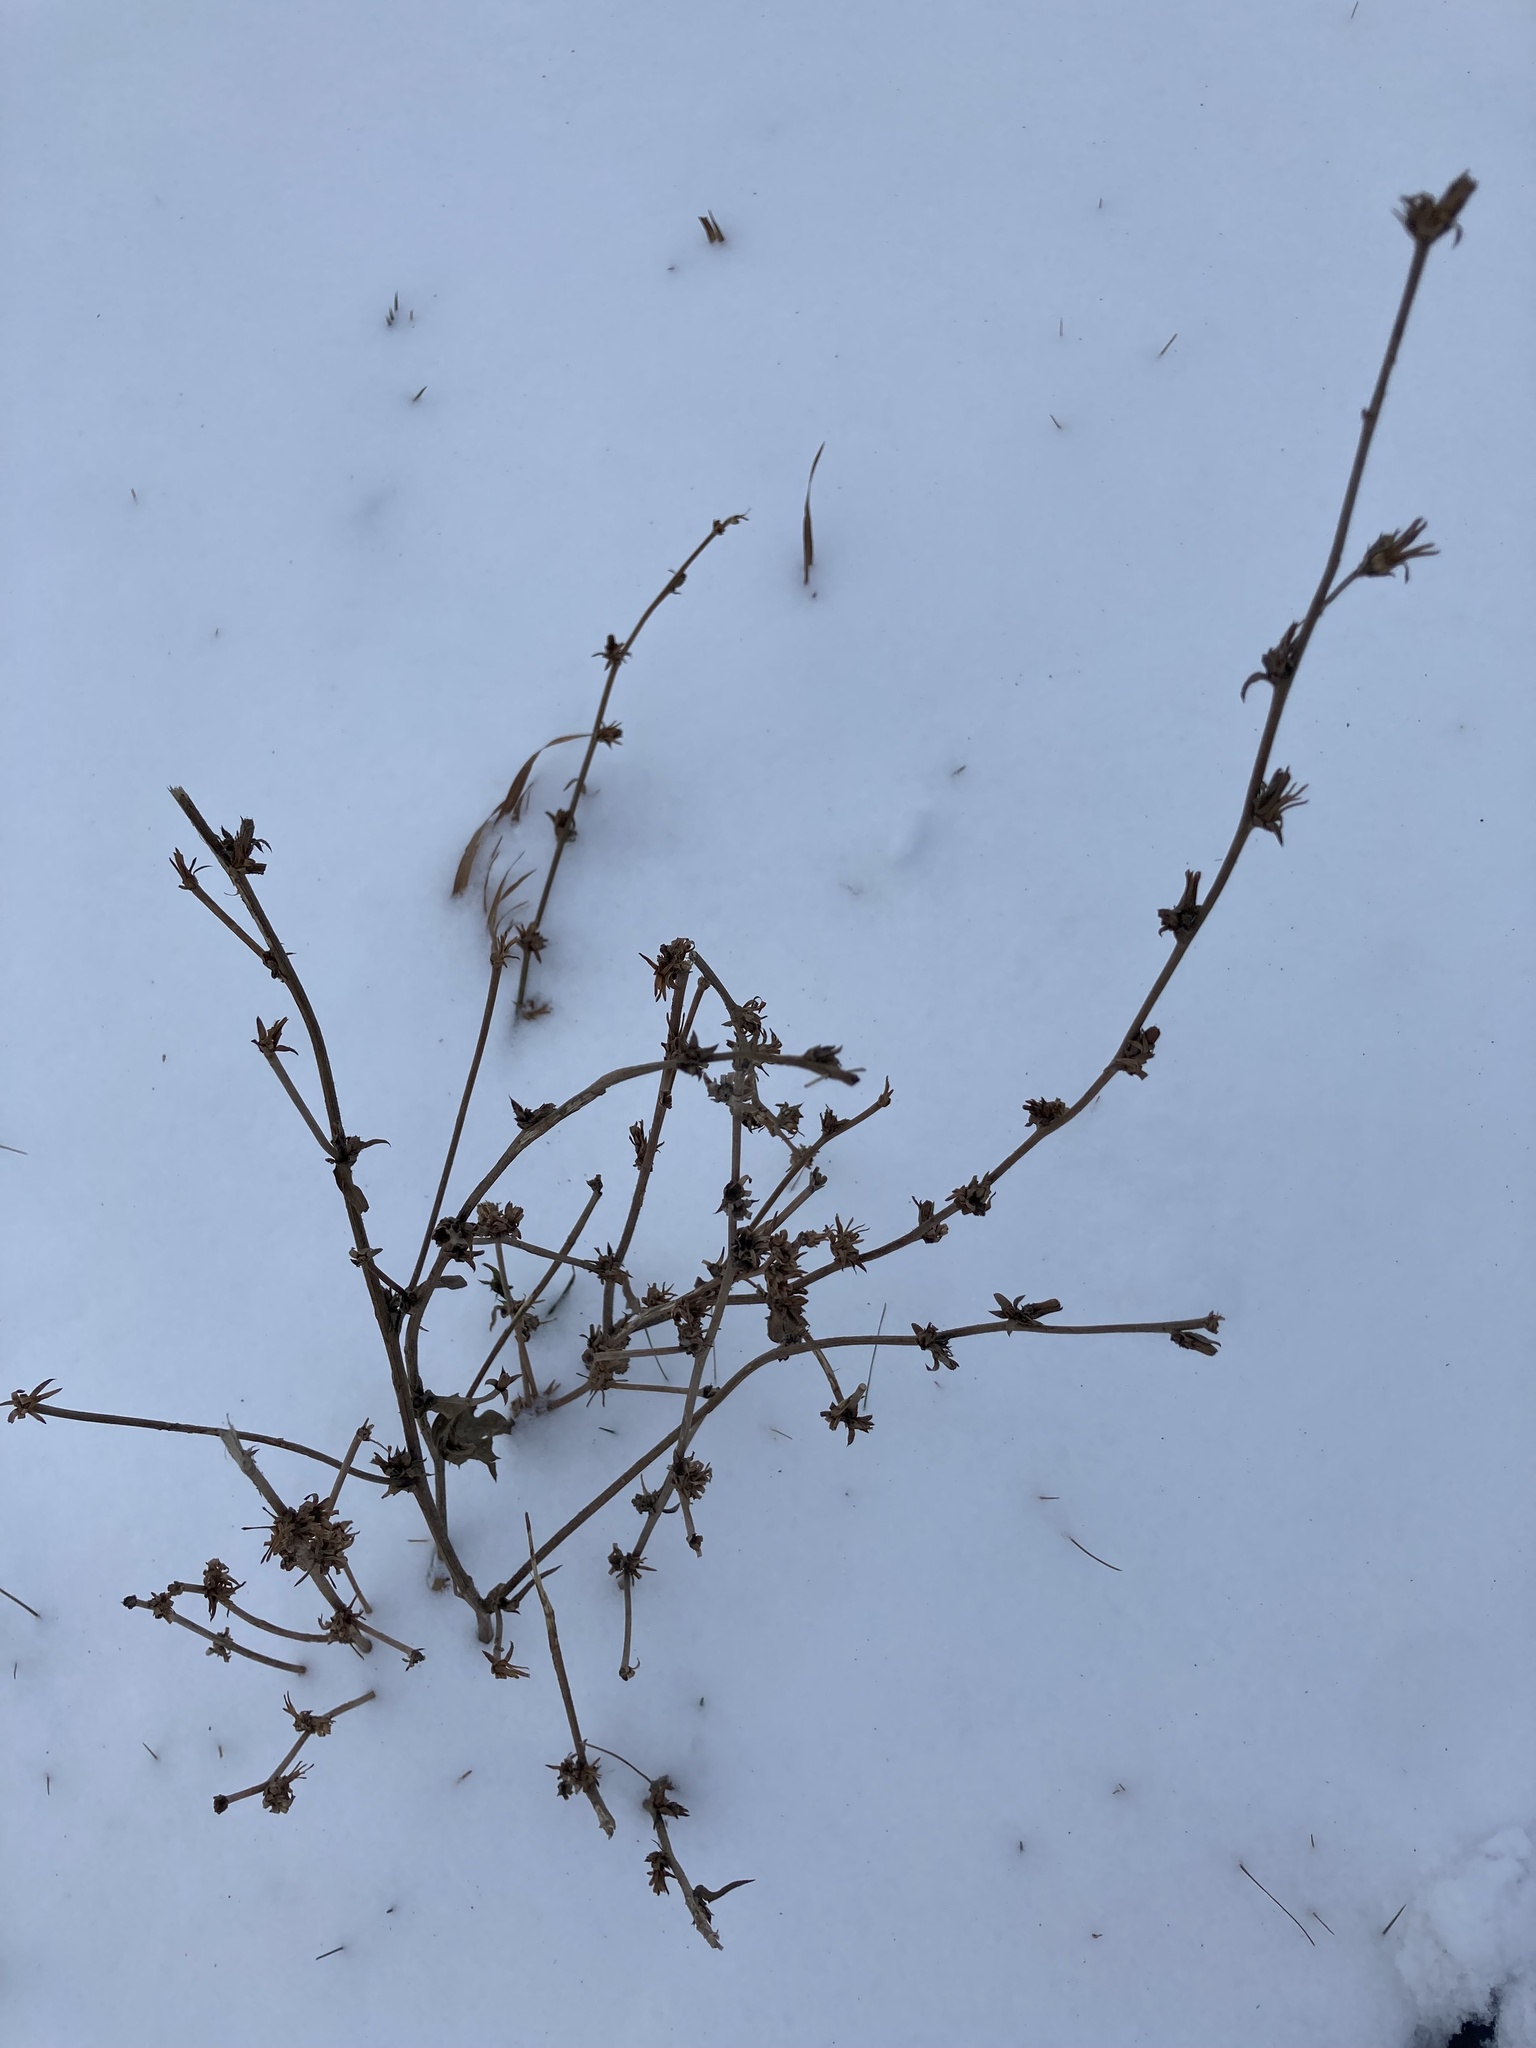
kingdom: Plantae
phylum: Tracheophyta
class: Magnoliopsida
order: Asterales
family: Asteraceae
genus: Cichorium
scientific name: Cichorium intybus
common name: Chicory
